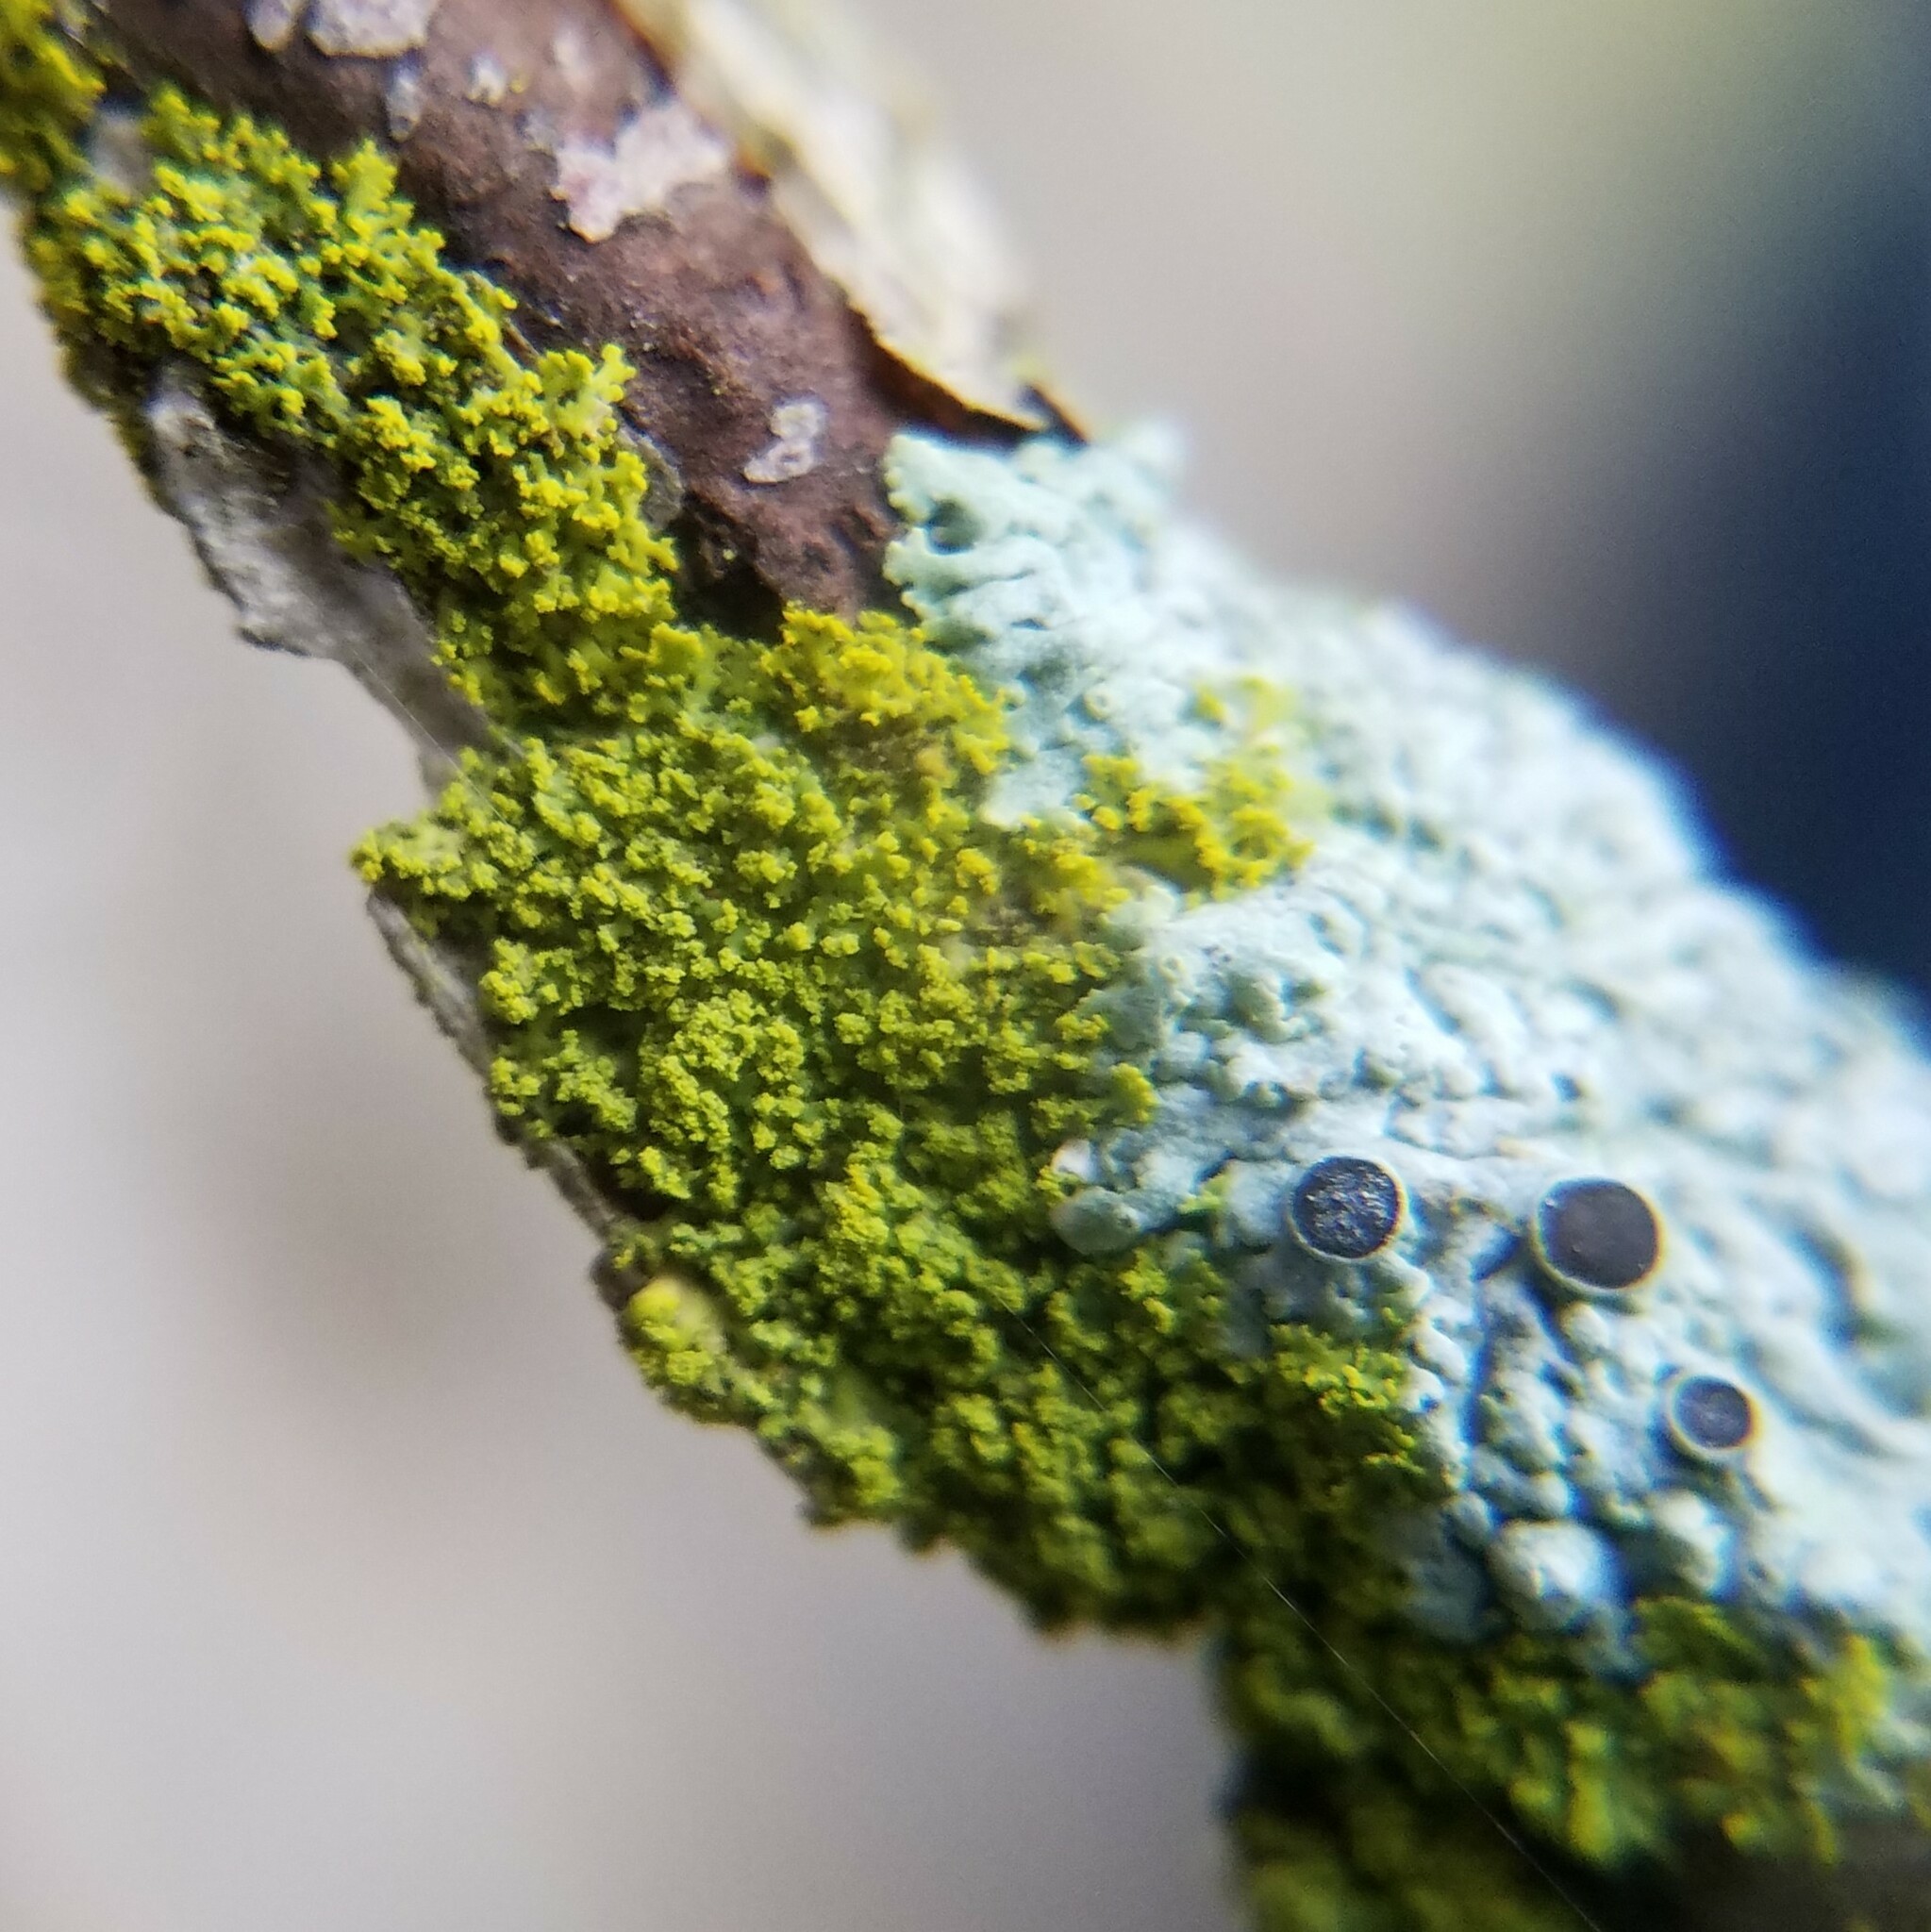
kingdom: Fungi
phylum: Ascomycota
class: Candelariomycetes
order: Candelariales
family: Candelariaceae
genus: Candelaria
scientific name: Candelaria concolor
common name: Candleflame lichen
